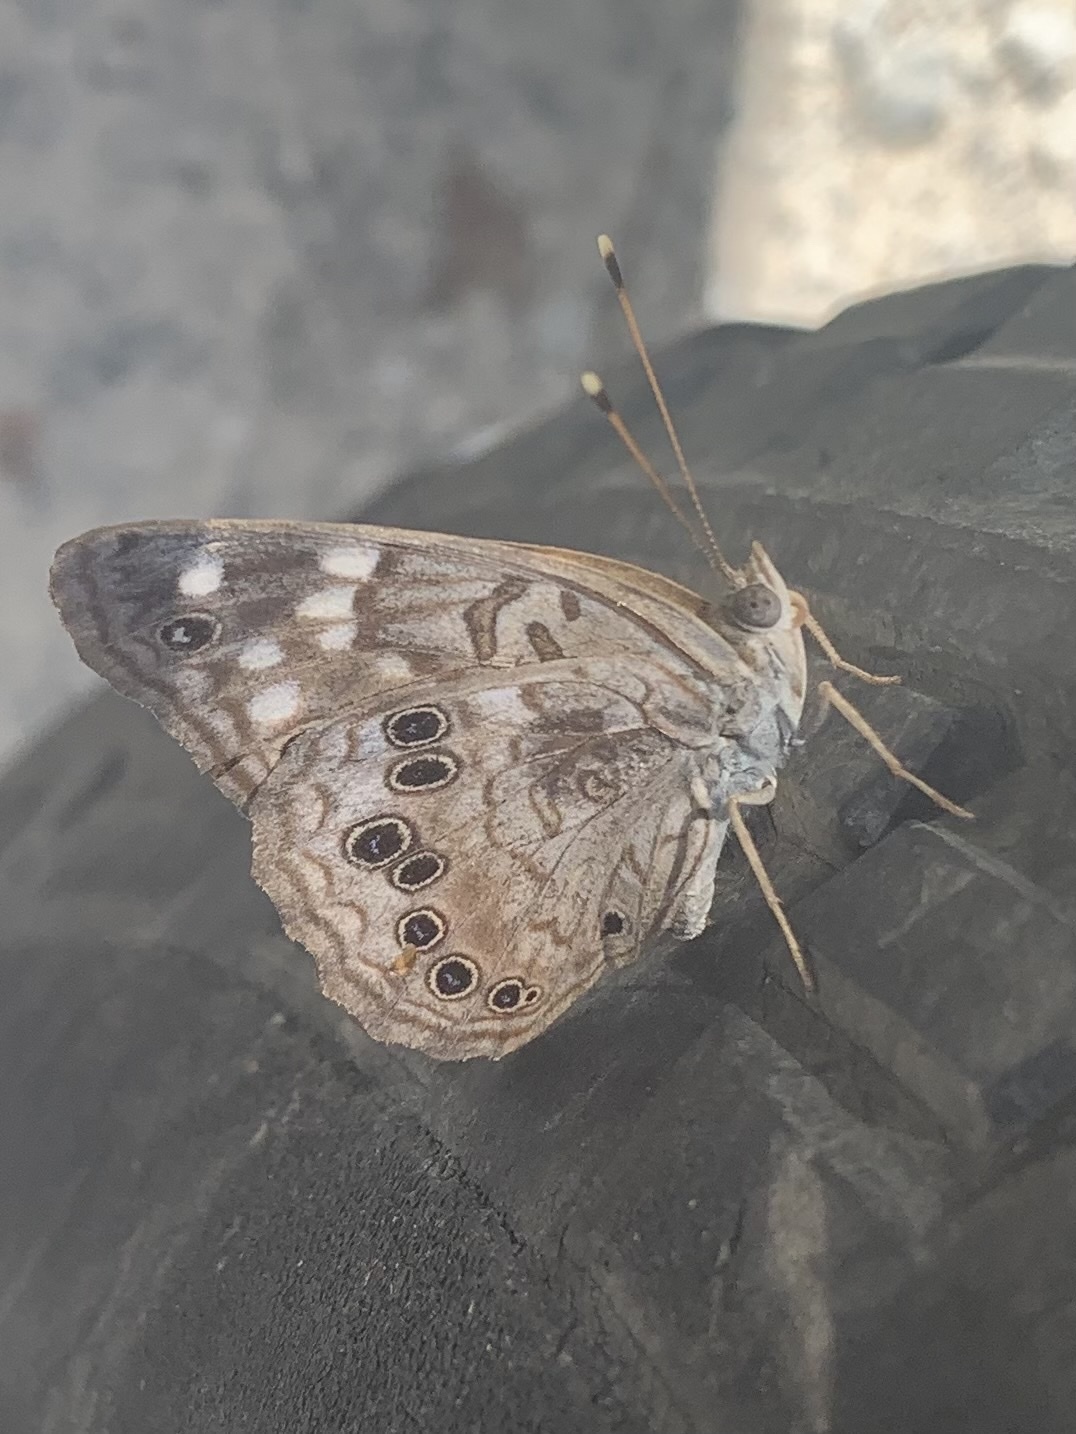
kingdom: Animalia
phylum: Arthropoda
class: Insecta
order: Lepidoptera
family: Nymphalidae
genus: Asterocampa
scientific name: Asterocampa celtis
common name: Hackberry emperor
